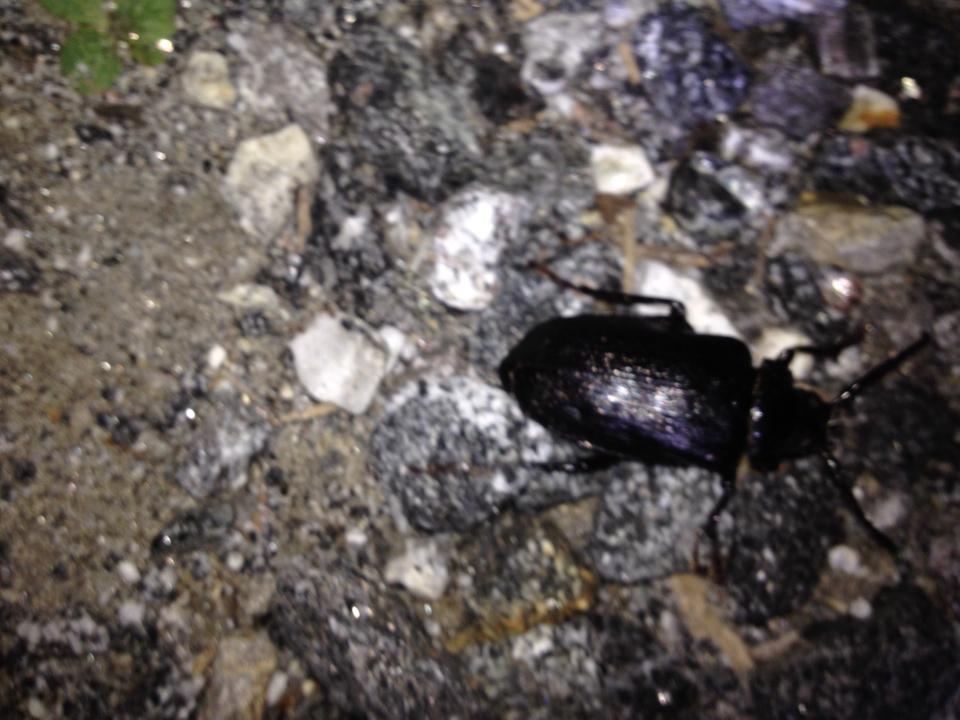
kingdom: Animalia
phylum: Arthropoda
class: Insecta
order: Coleoptera
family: Cerambycidae
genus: Prionus
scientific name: Prionus laticollis
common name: Broad necked prionus
